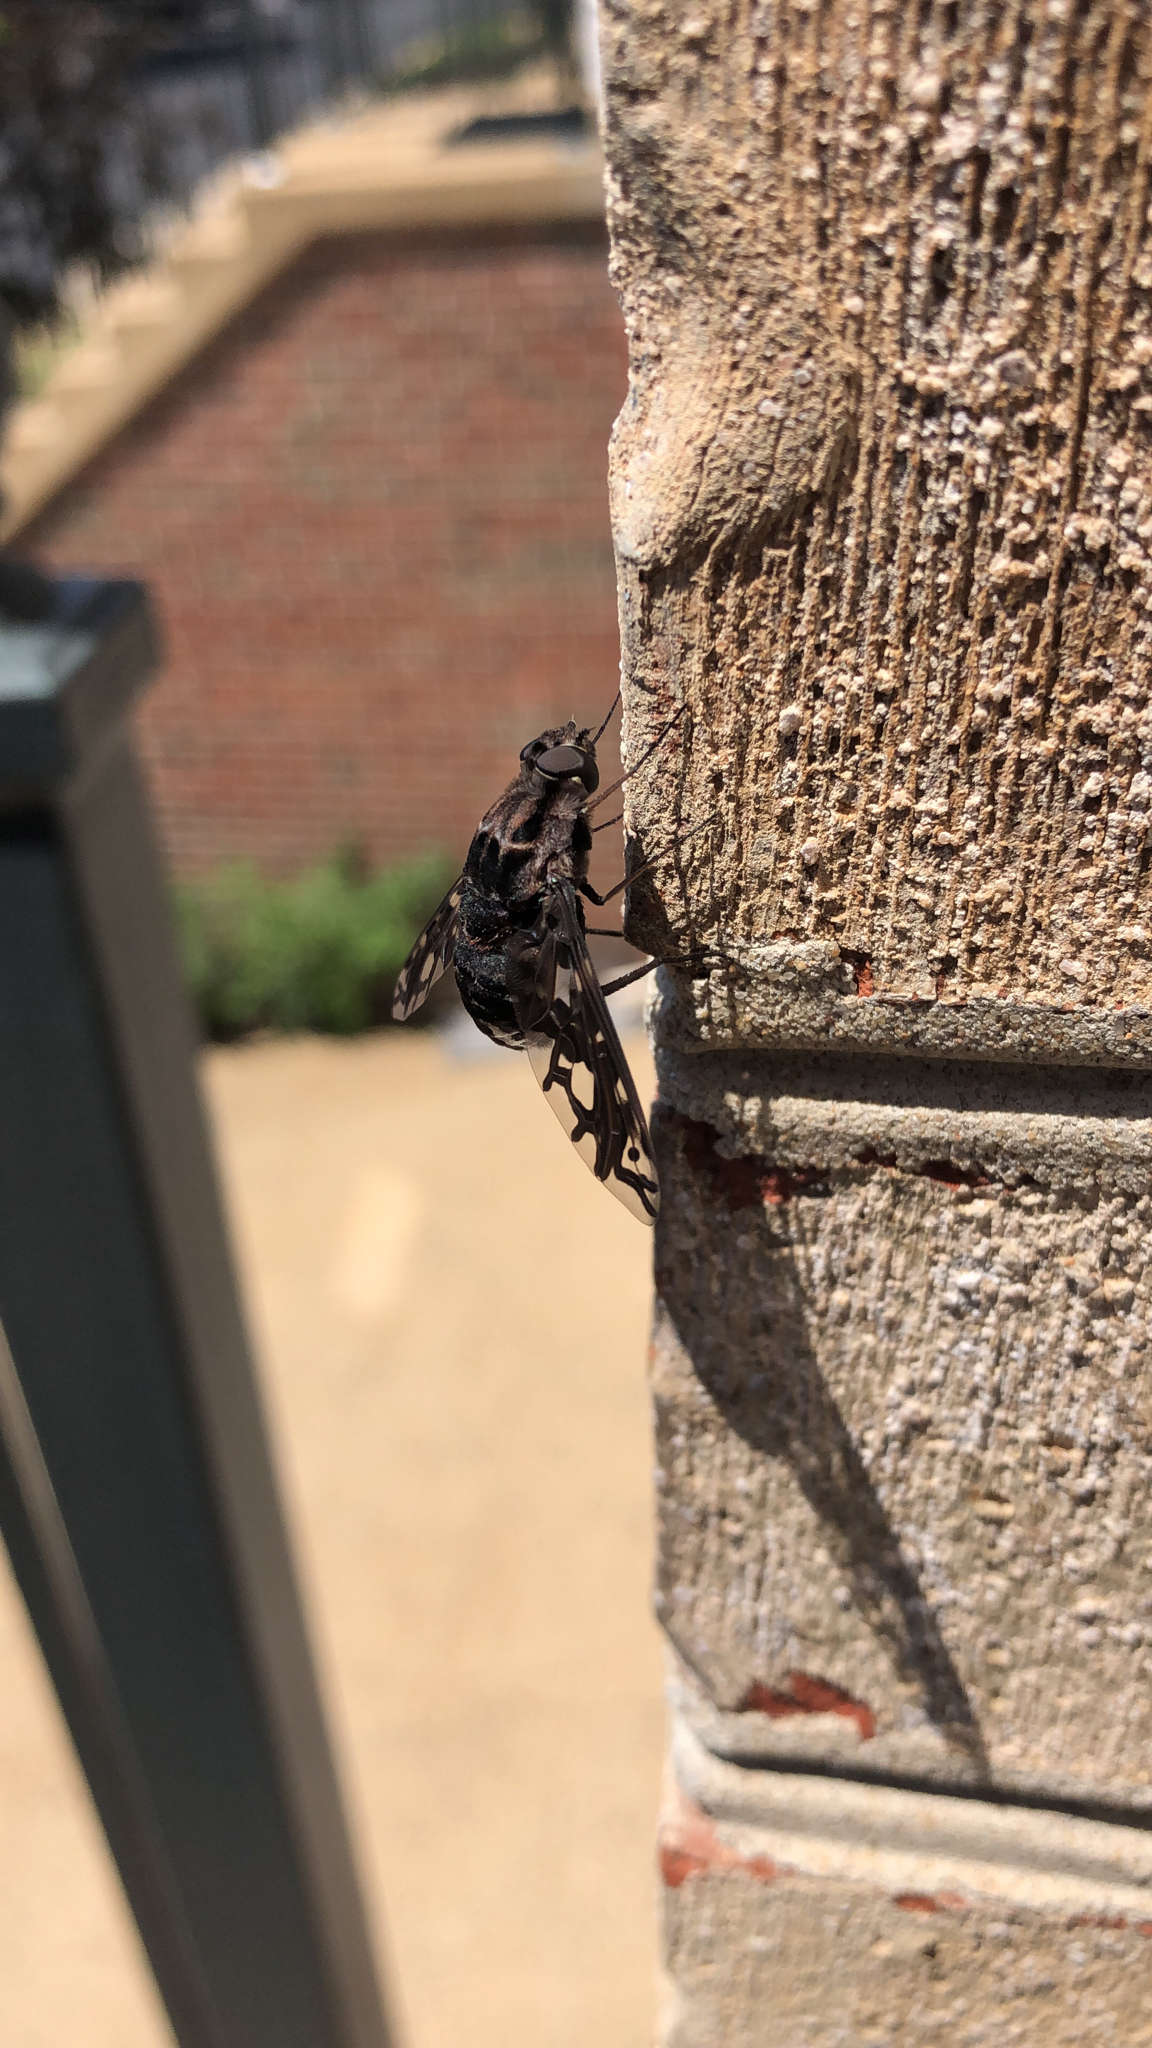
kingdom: Animalia
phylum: Arthropoda
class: Insecta
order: Diptera
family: Bombyliidae
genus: Xenox
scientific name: Xenox tigrinus
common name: Tiger bee fly
